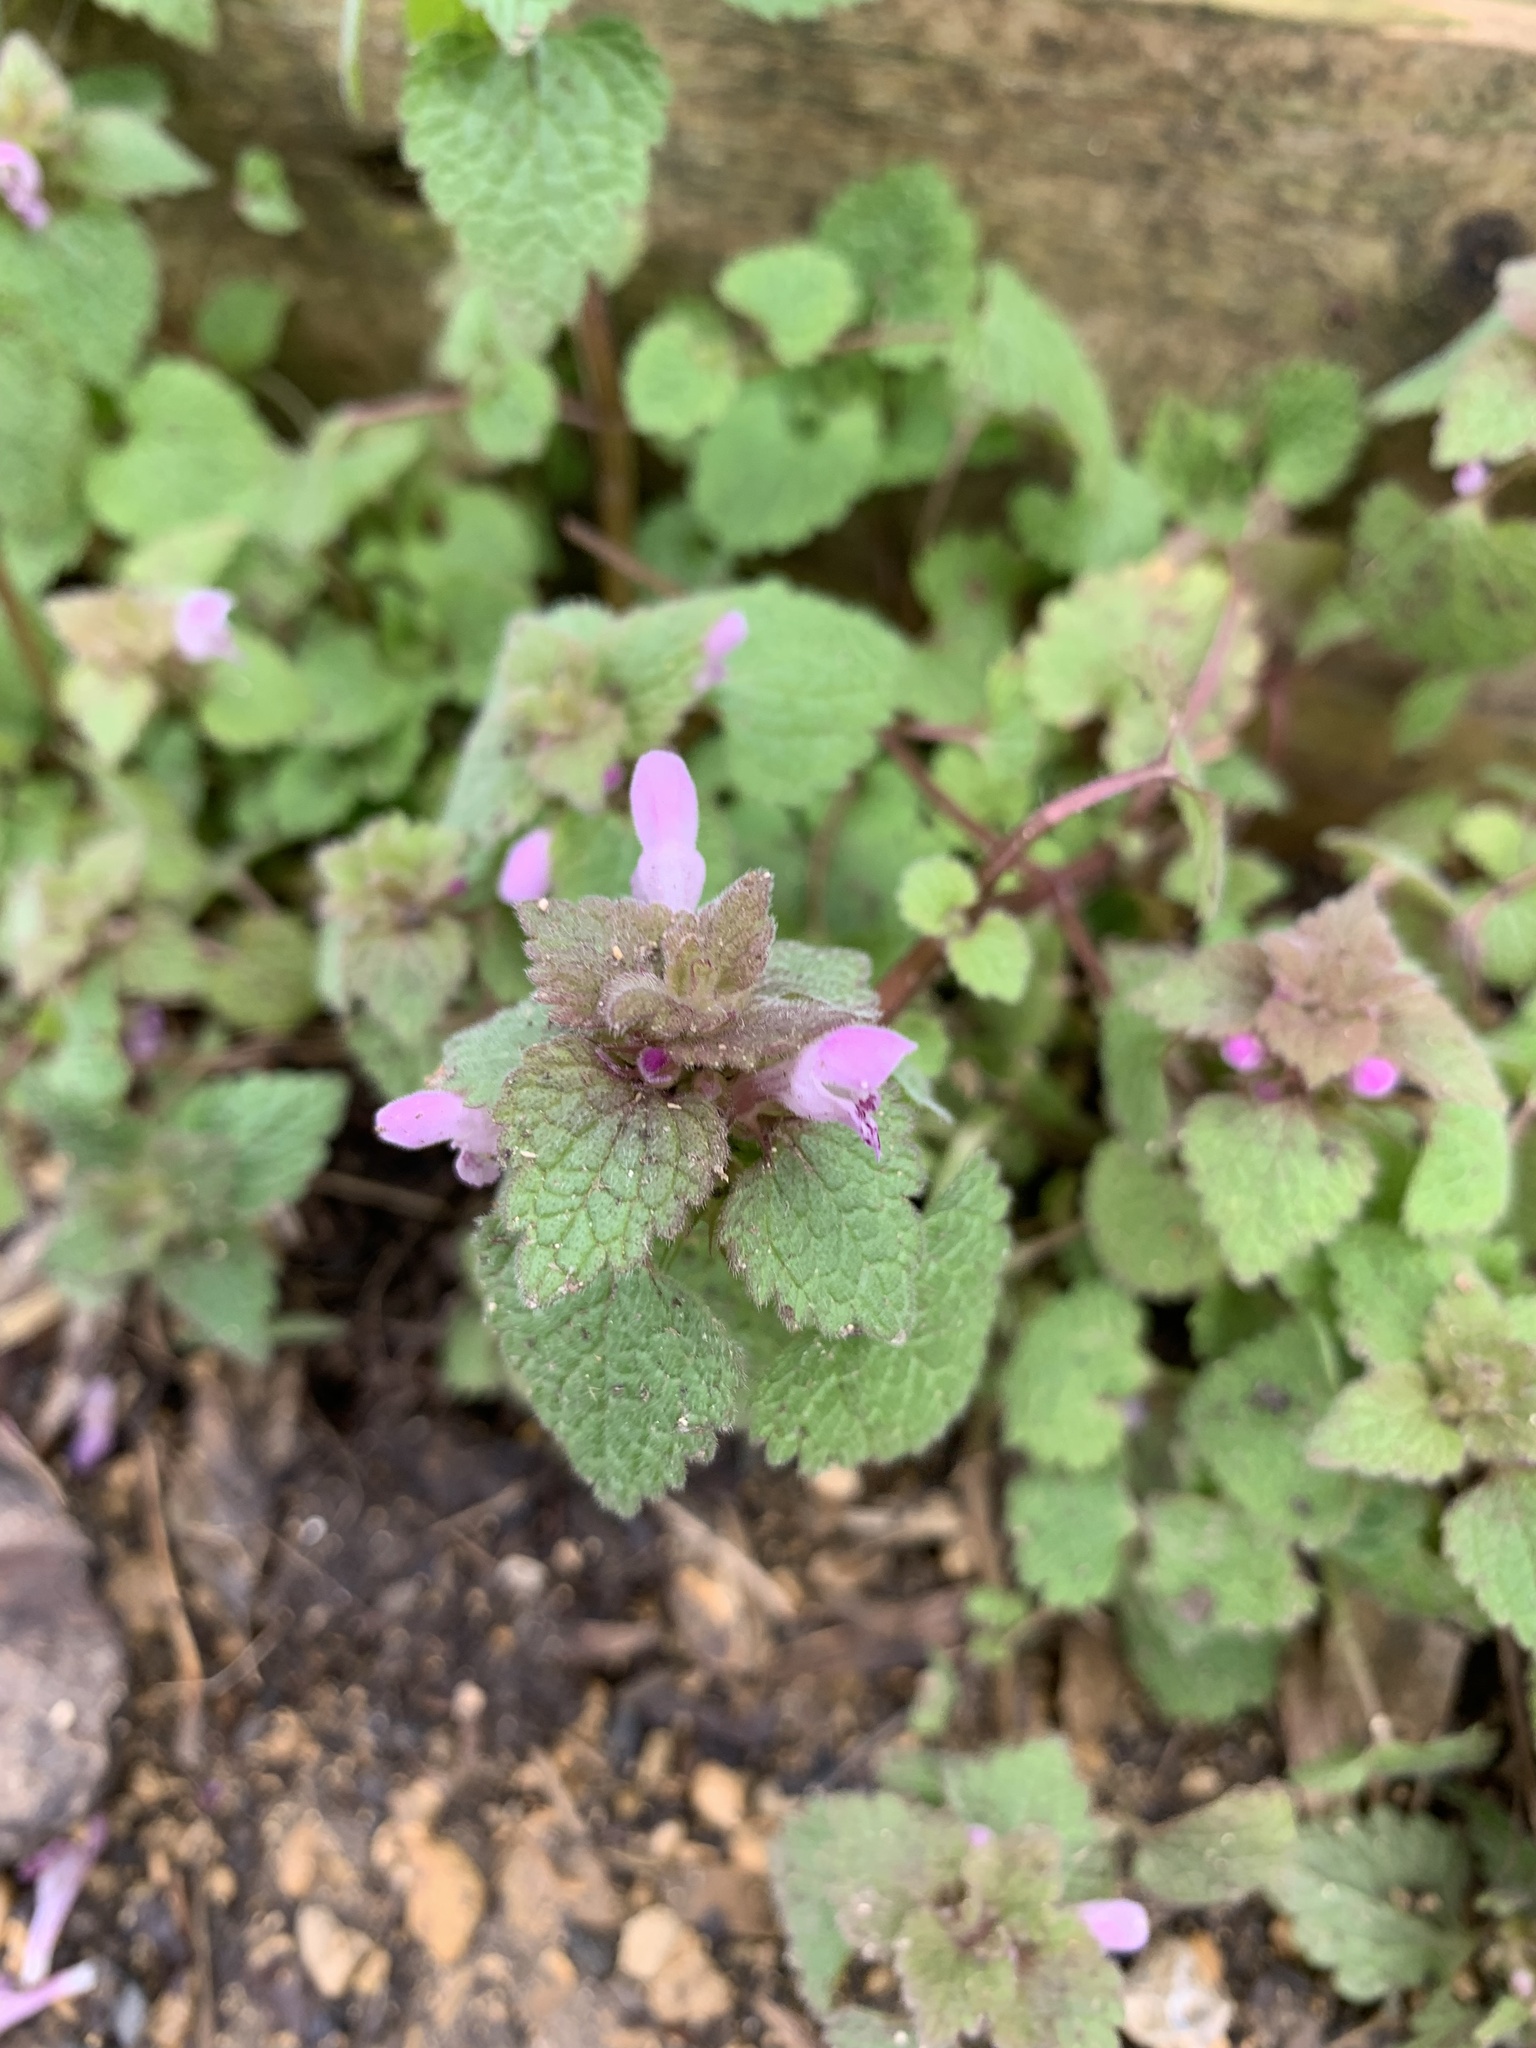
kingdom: Plantae
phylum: Tracheophyta
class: Magnoliopsida
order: Lamiales
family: Lamiaceae
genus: Lamium
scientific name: Lamium purpureum
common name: Red dead-nettle
